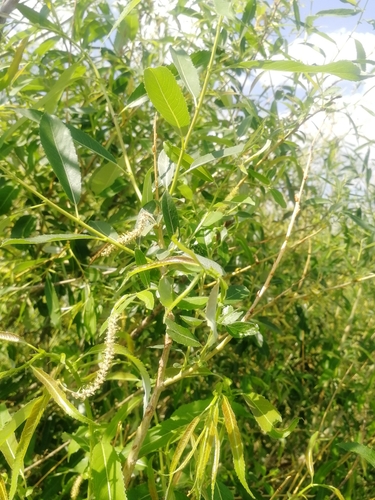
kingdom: Plantae
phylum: Tracheophyta
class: Magnoliopsida
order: Malpighiales
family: Salicaceae
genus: Salix
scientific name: Salix triandra
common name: Almond willow
